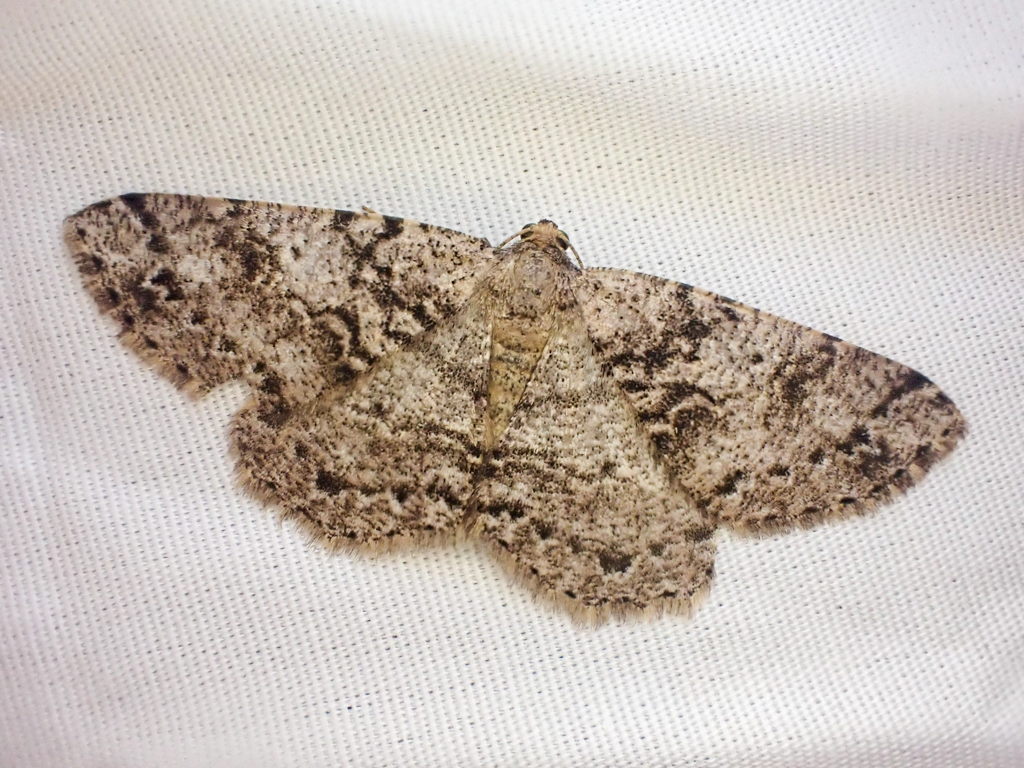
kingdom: Animalia
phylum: Arthropoda
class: Insecta
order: Lepidoptera
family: Geometridae
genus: Melanolophia
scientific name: Melanolophia imitata
